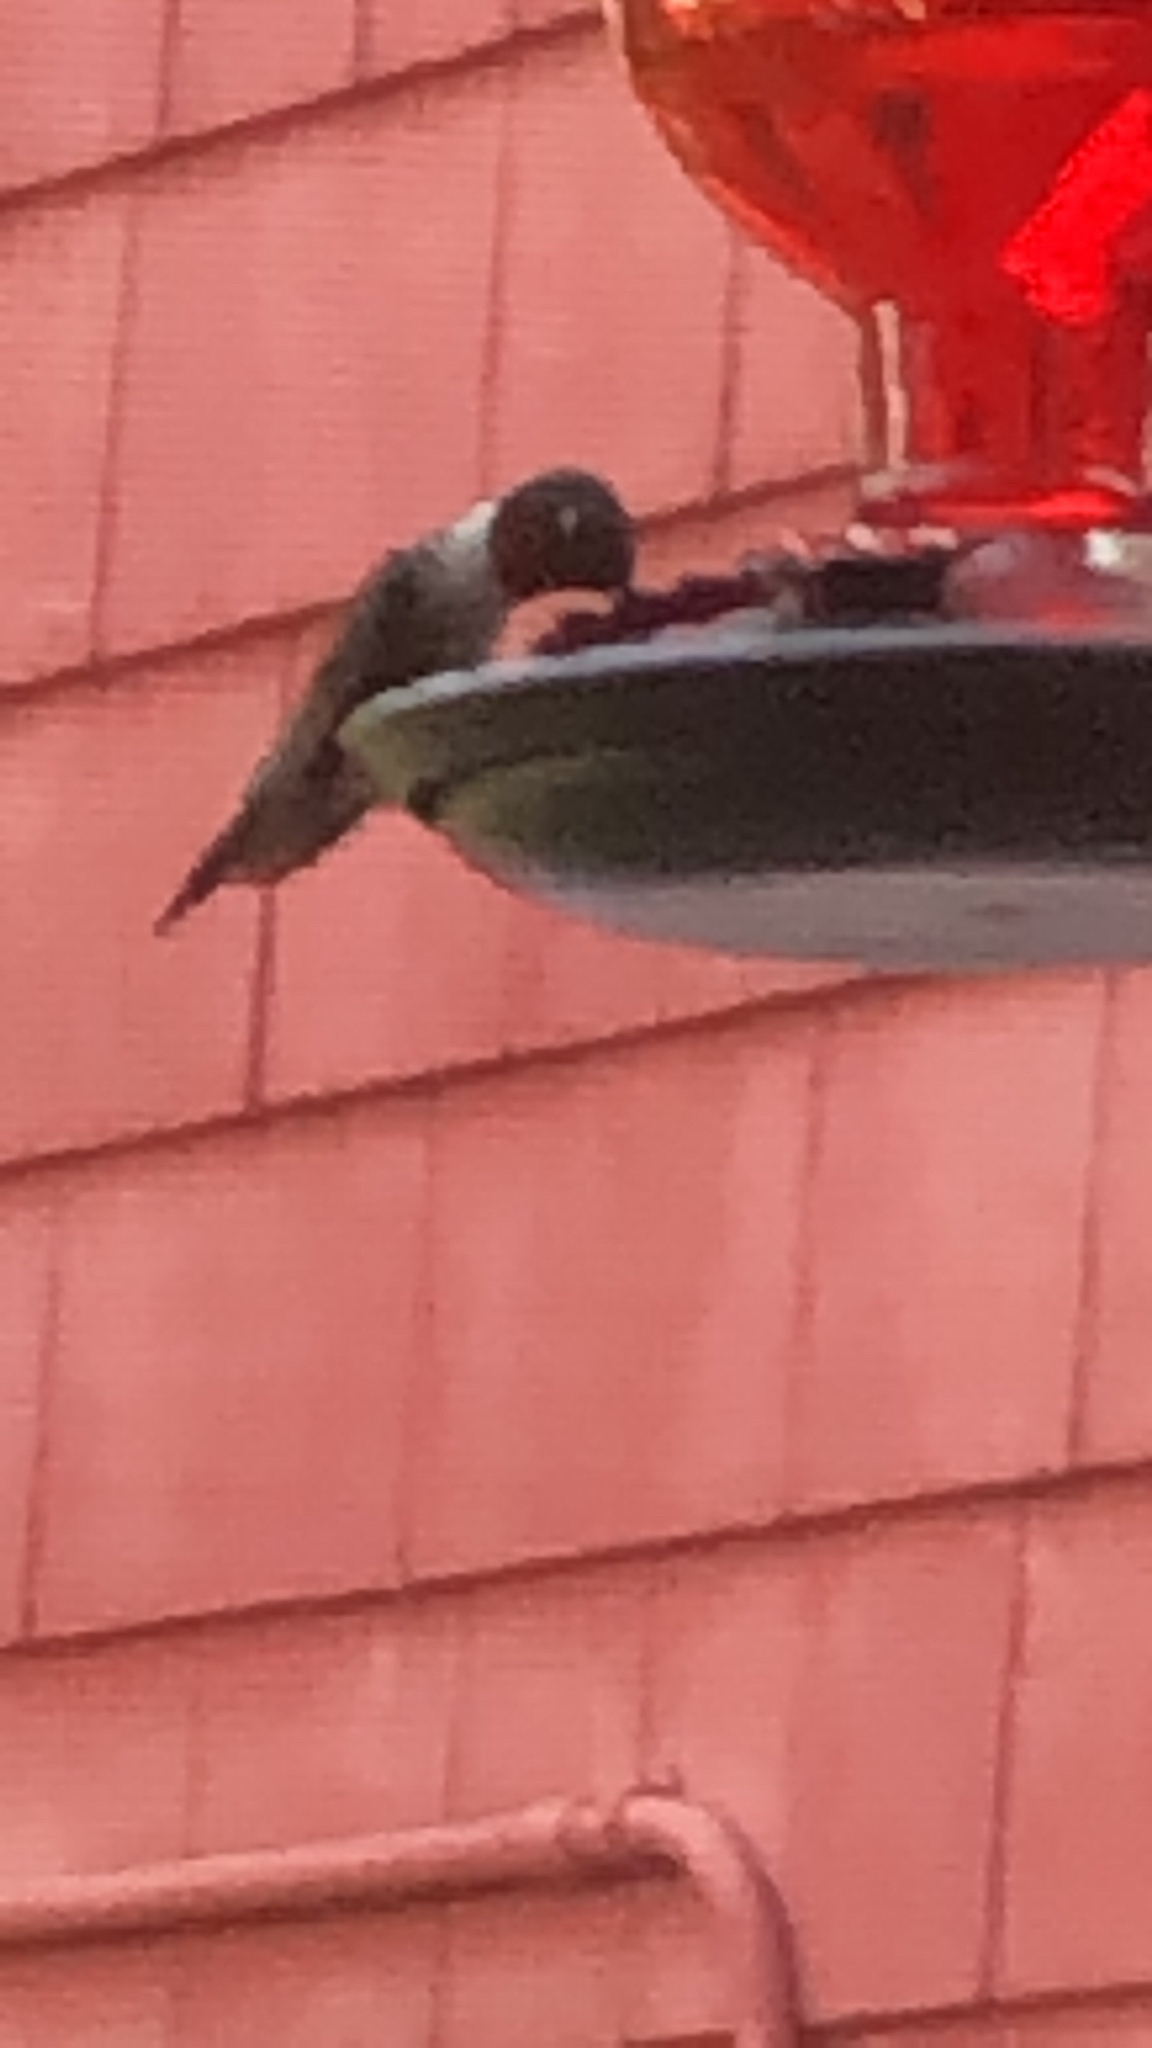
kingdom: Animalia
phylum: Chordata
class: Aves
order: Apodiformes
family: Trochilidae
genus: Archilochus
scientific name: Archilochus colubris
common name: Ruby-throated hummingbird
